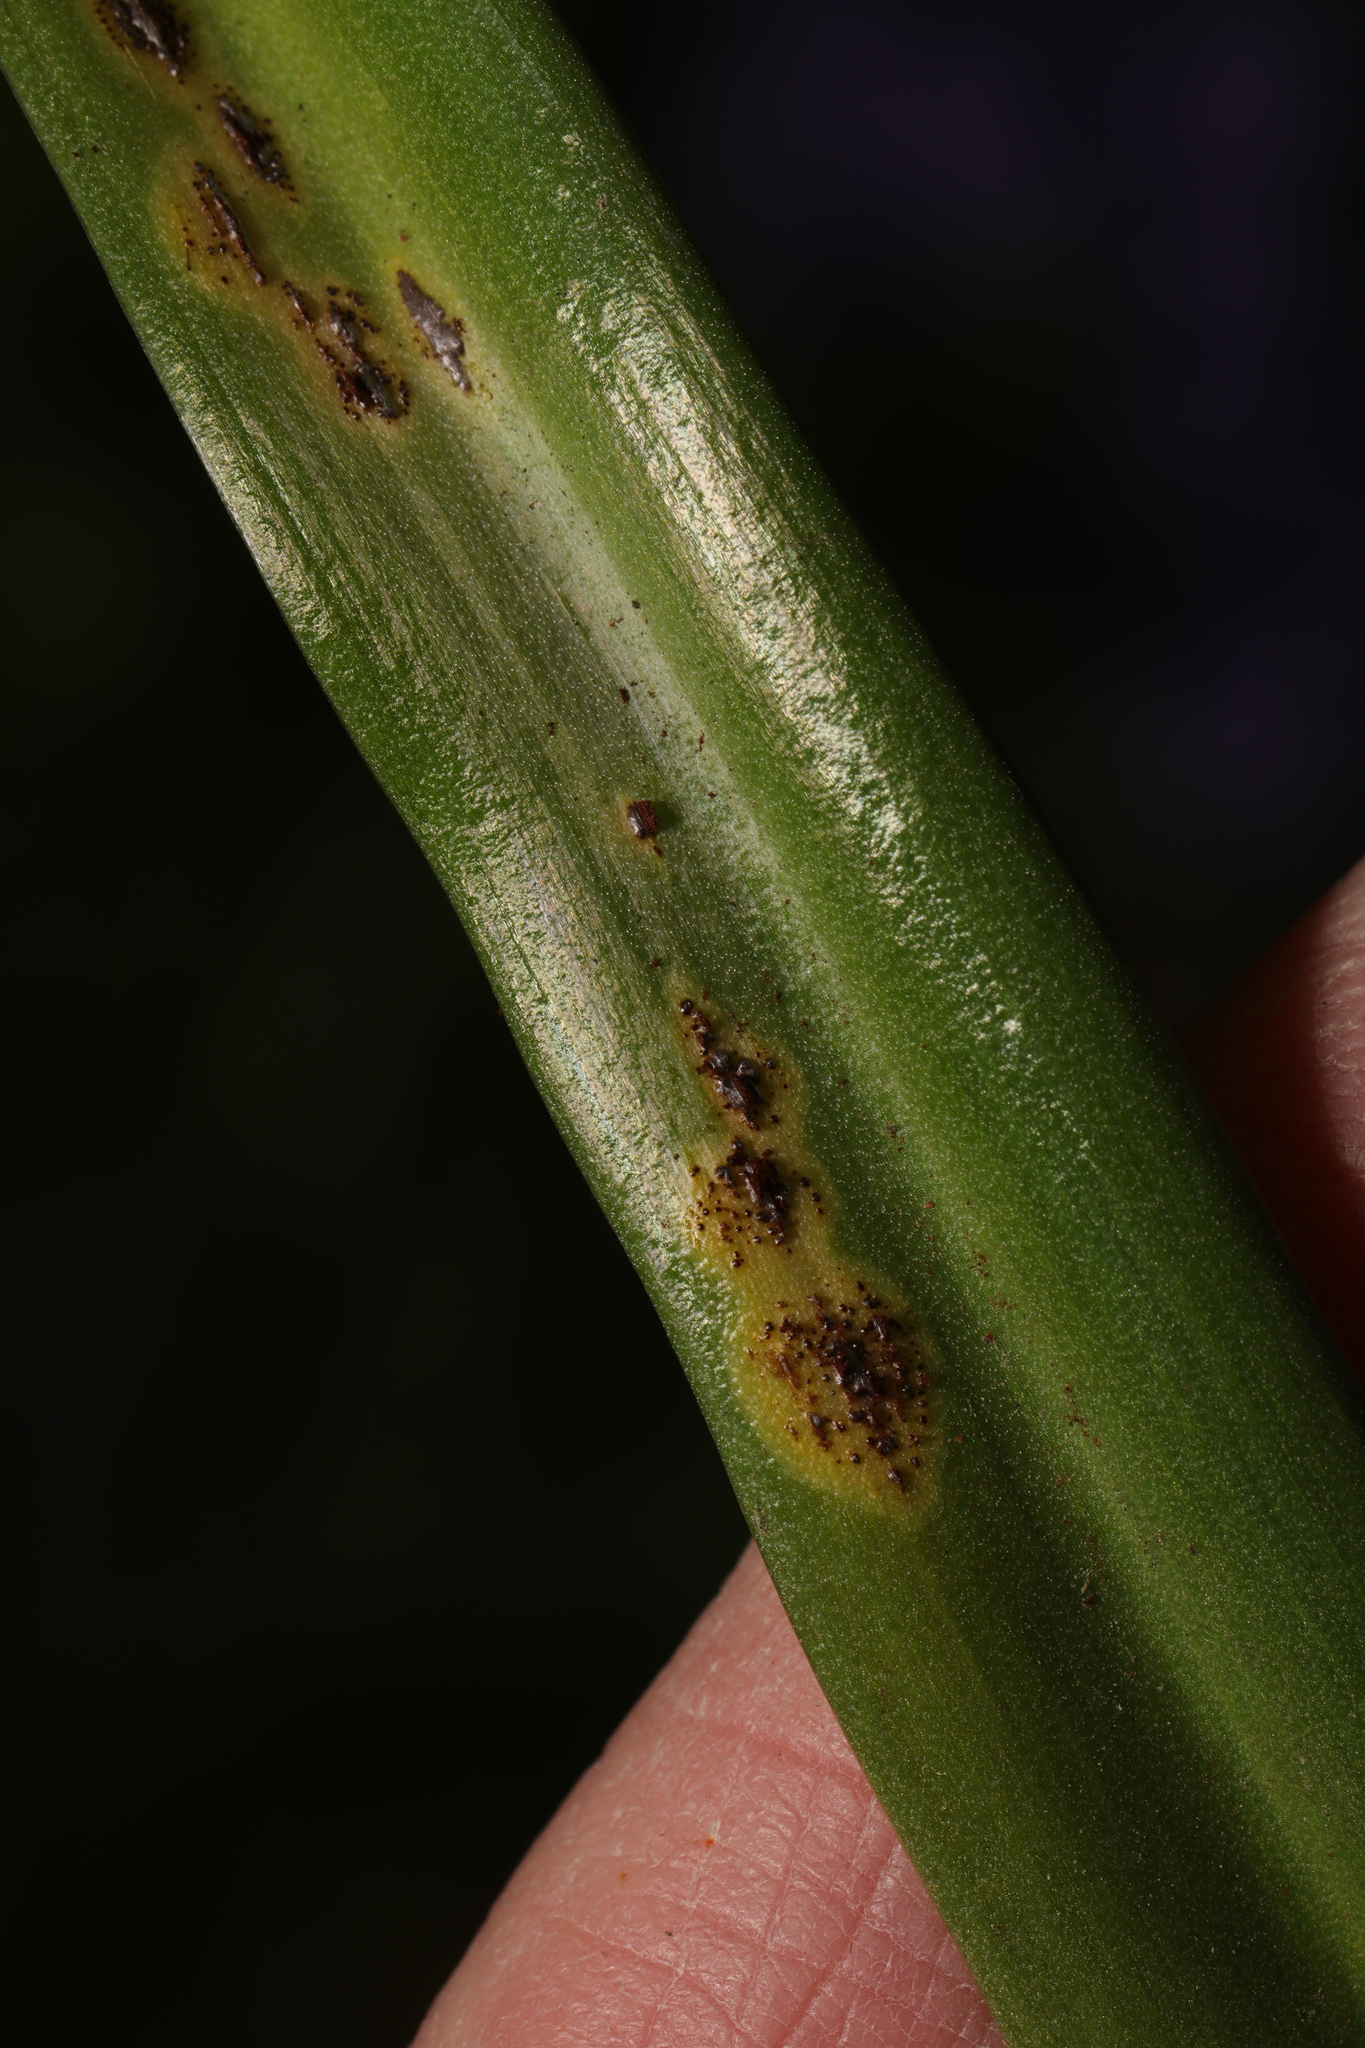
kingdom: Fungi
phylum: Basidiomycota
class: Pucciniomycetes
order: Pucciniales
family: Pucciniaceae
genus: Uromyces
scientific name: Uromyces hyacinthi
